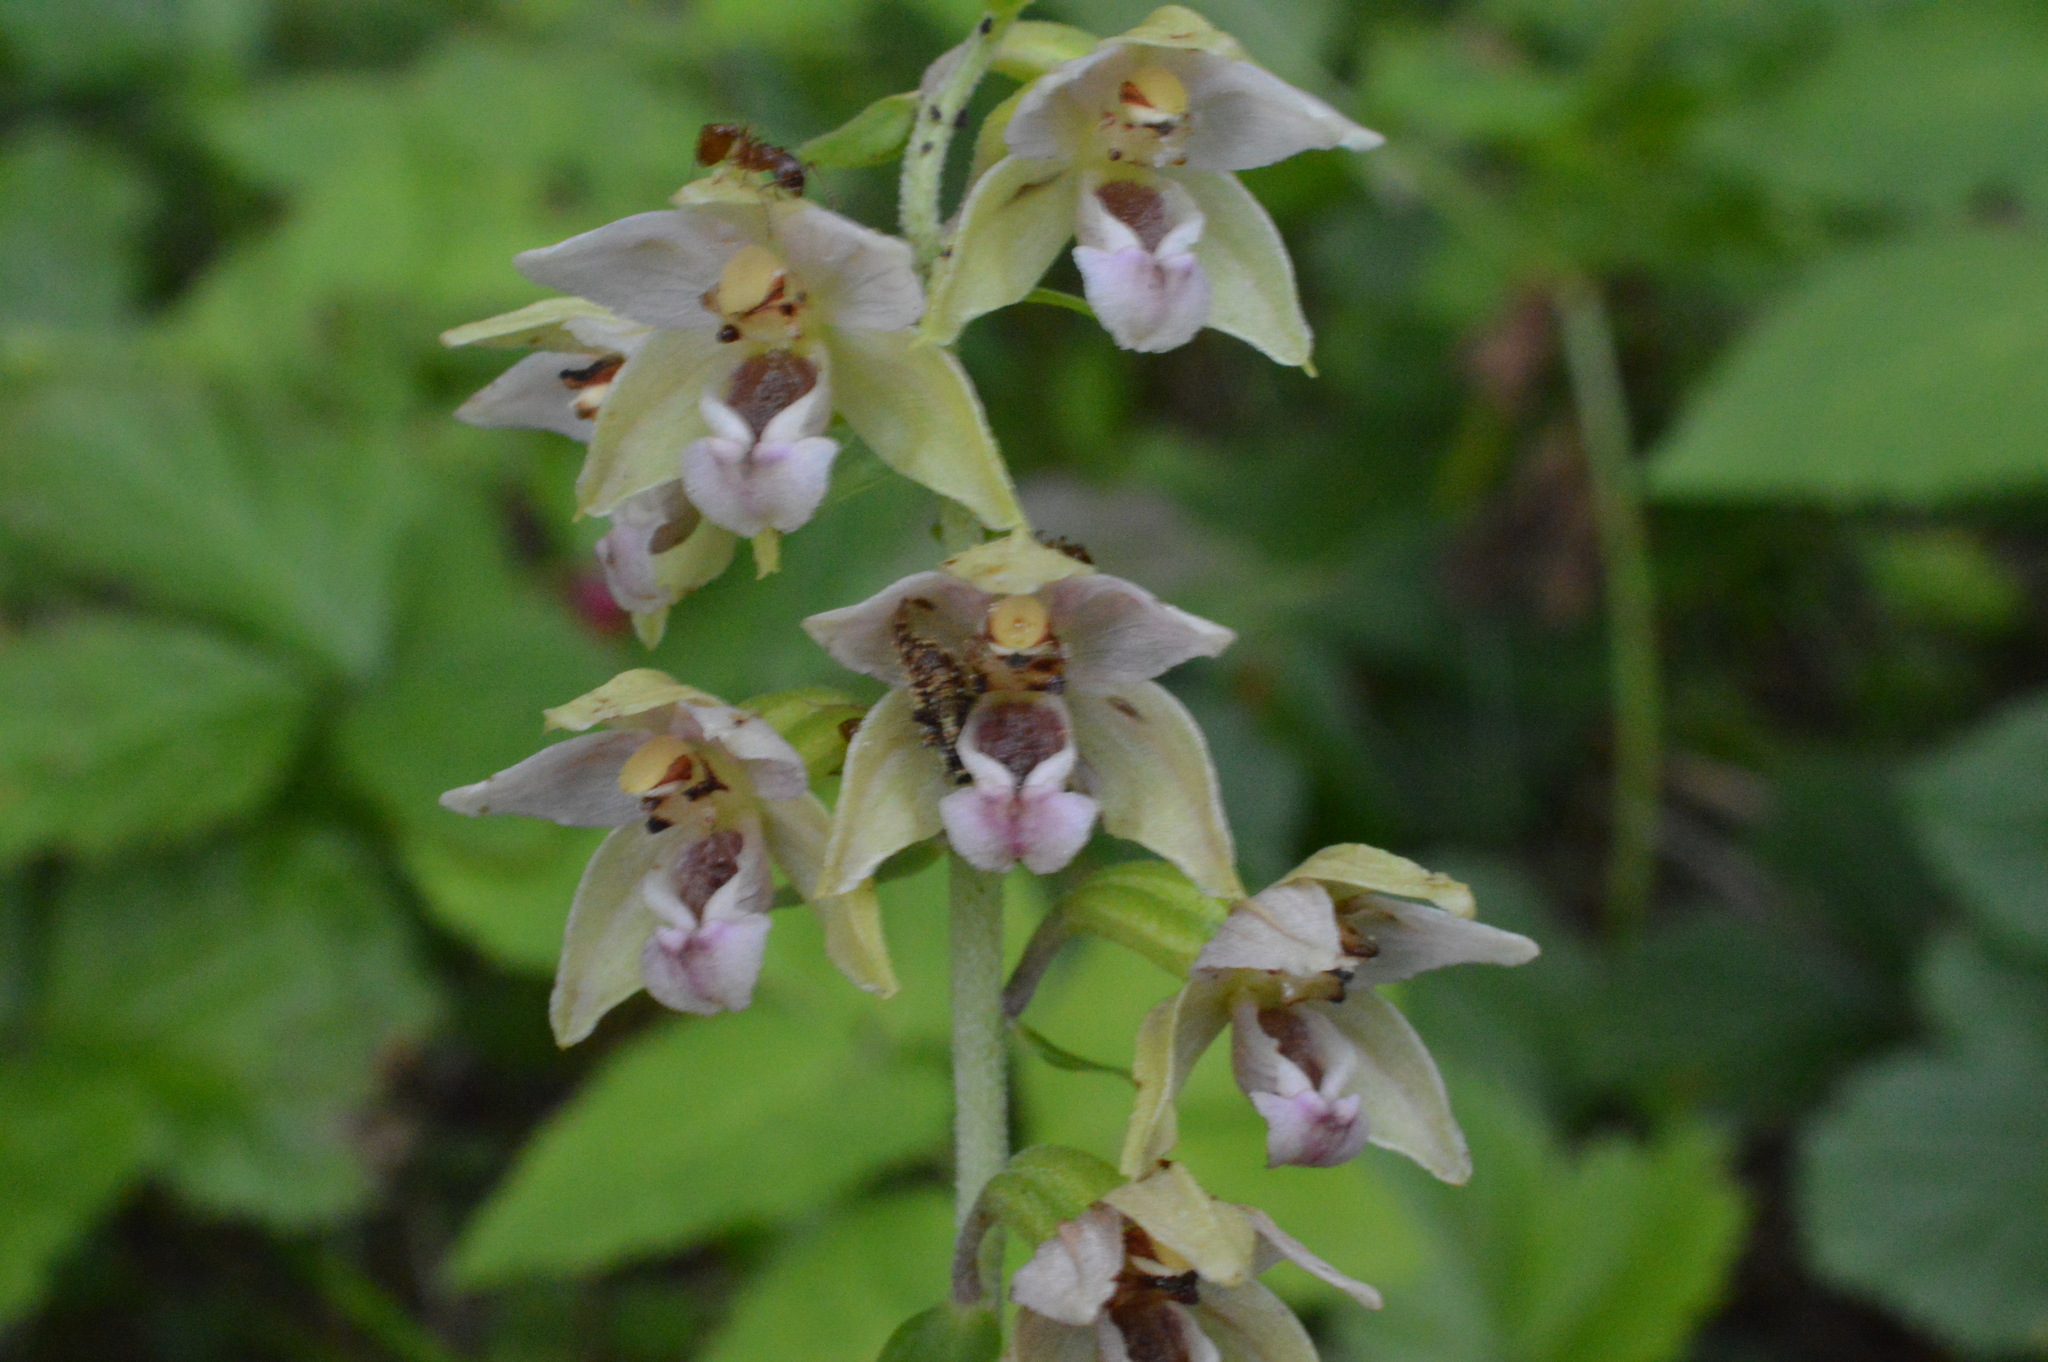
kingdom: Plantae
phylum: Tracheophyta
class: Liliopsida
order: Asparagales
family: Orchidaceae
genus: Epipactis
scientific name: Epipactis helleborine
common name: Broad-leaved helleborine
